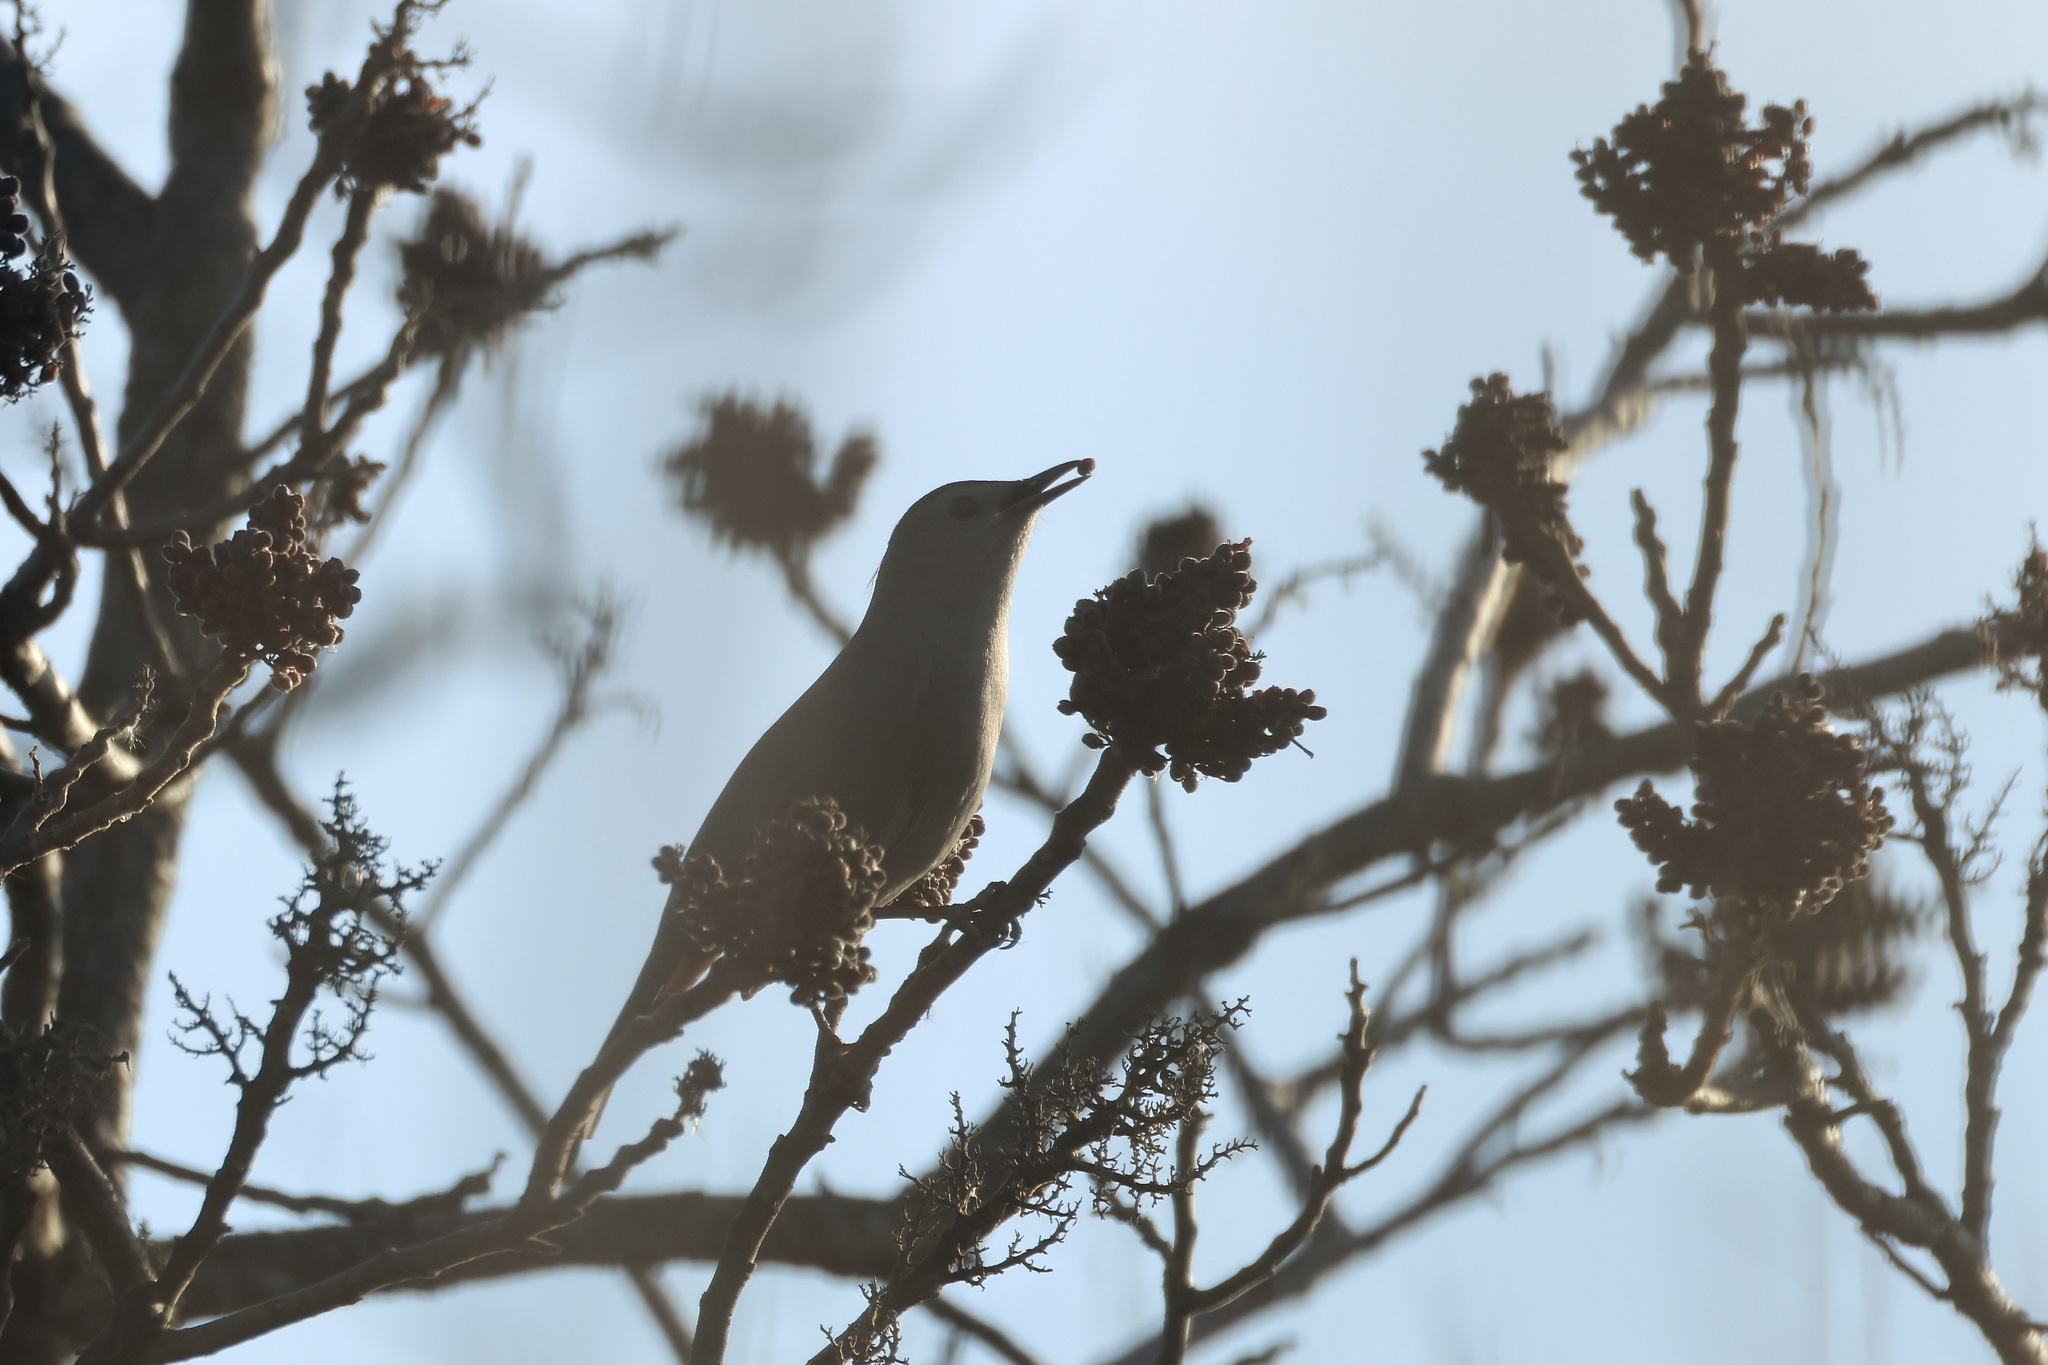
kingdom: Animalia
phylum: Chordata
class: Aves
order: Passeriformes
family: Mimidae
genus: Dumetella
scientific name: Dumetella carolinensis
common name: Gray catbird
